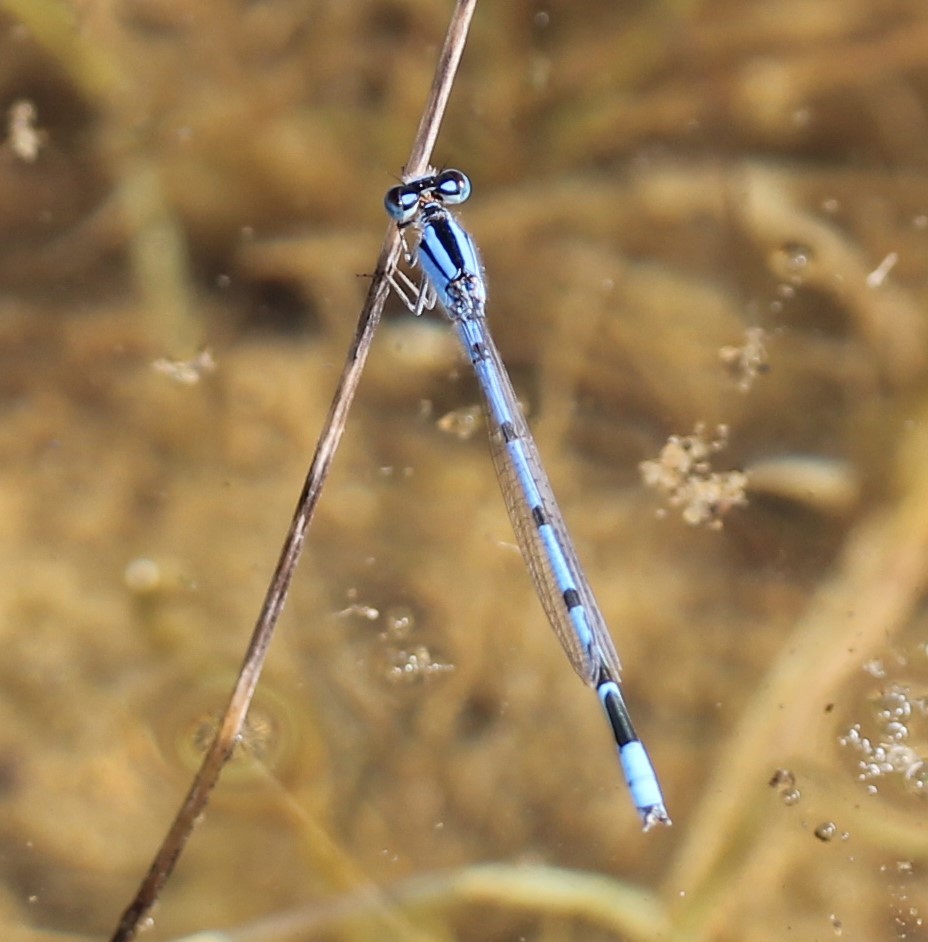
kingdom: Animalia
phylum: Arthropoda
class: Insecta
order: Odonata
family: Coenagrionidae
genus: Enallagma
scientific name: Enallagma civile
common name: Damselfly
